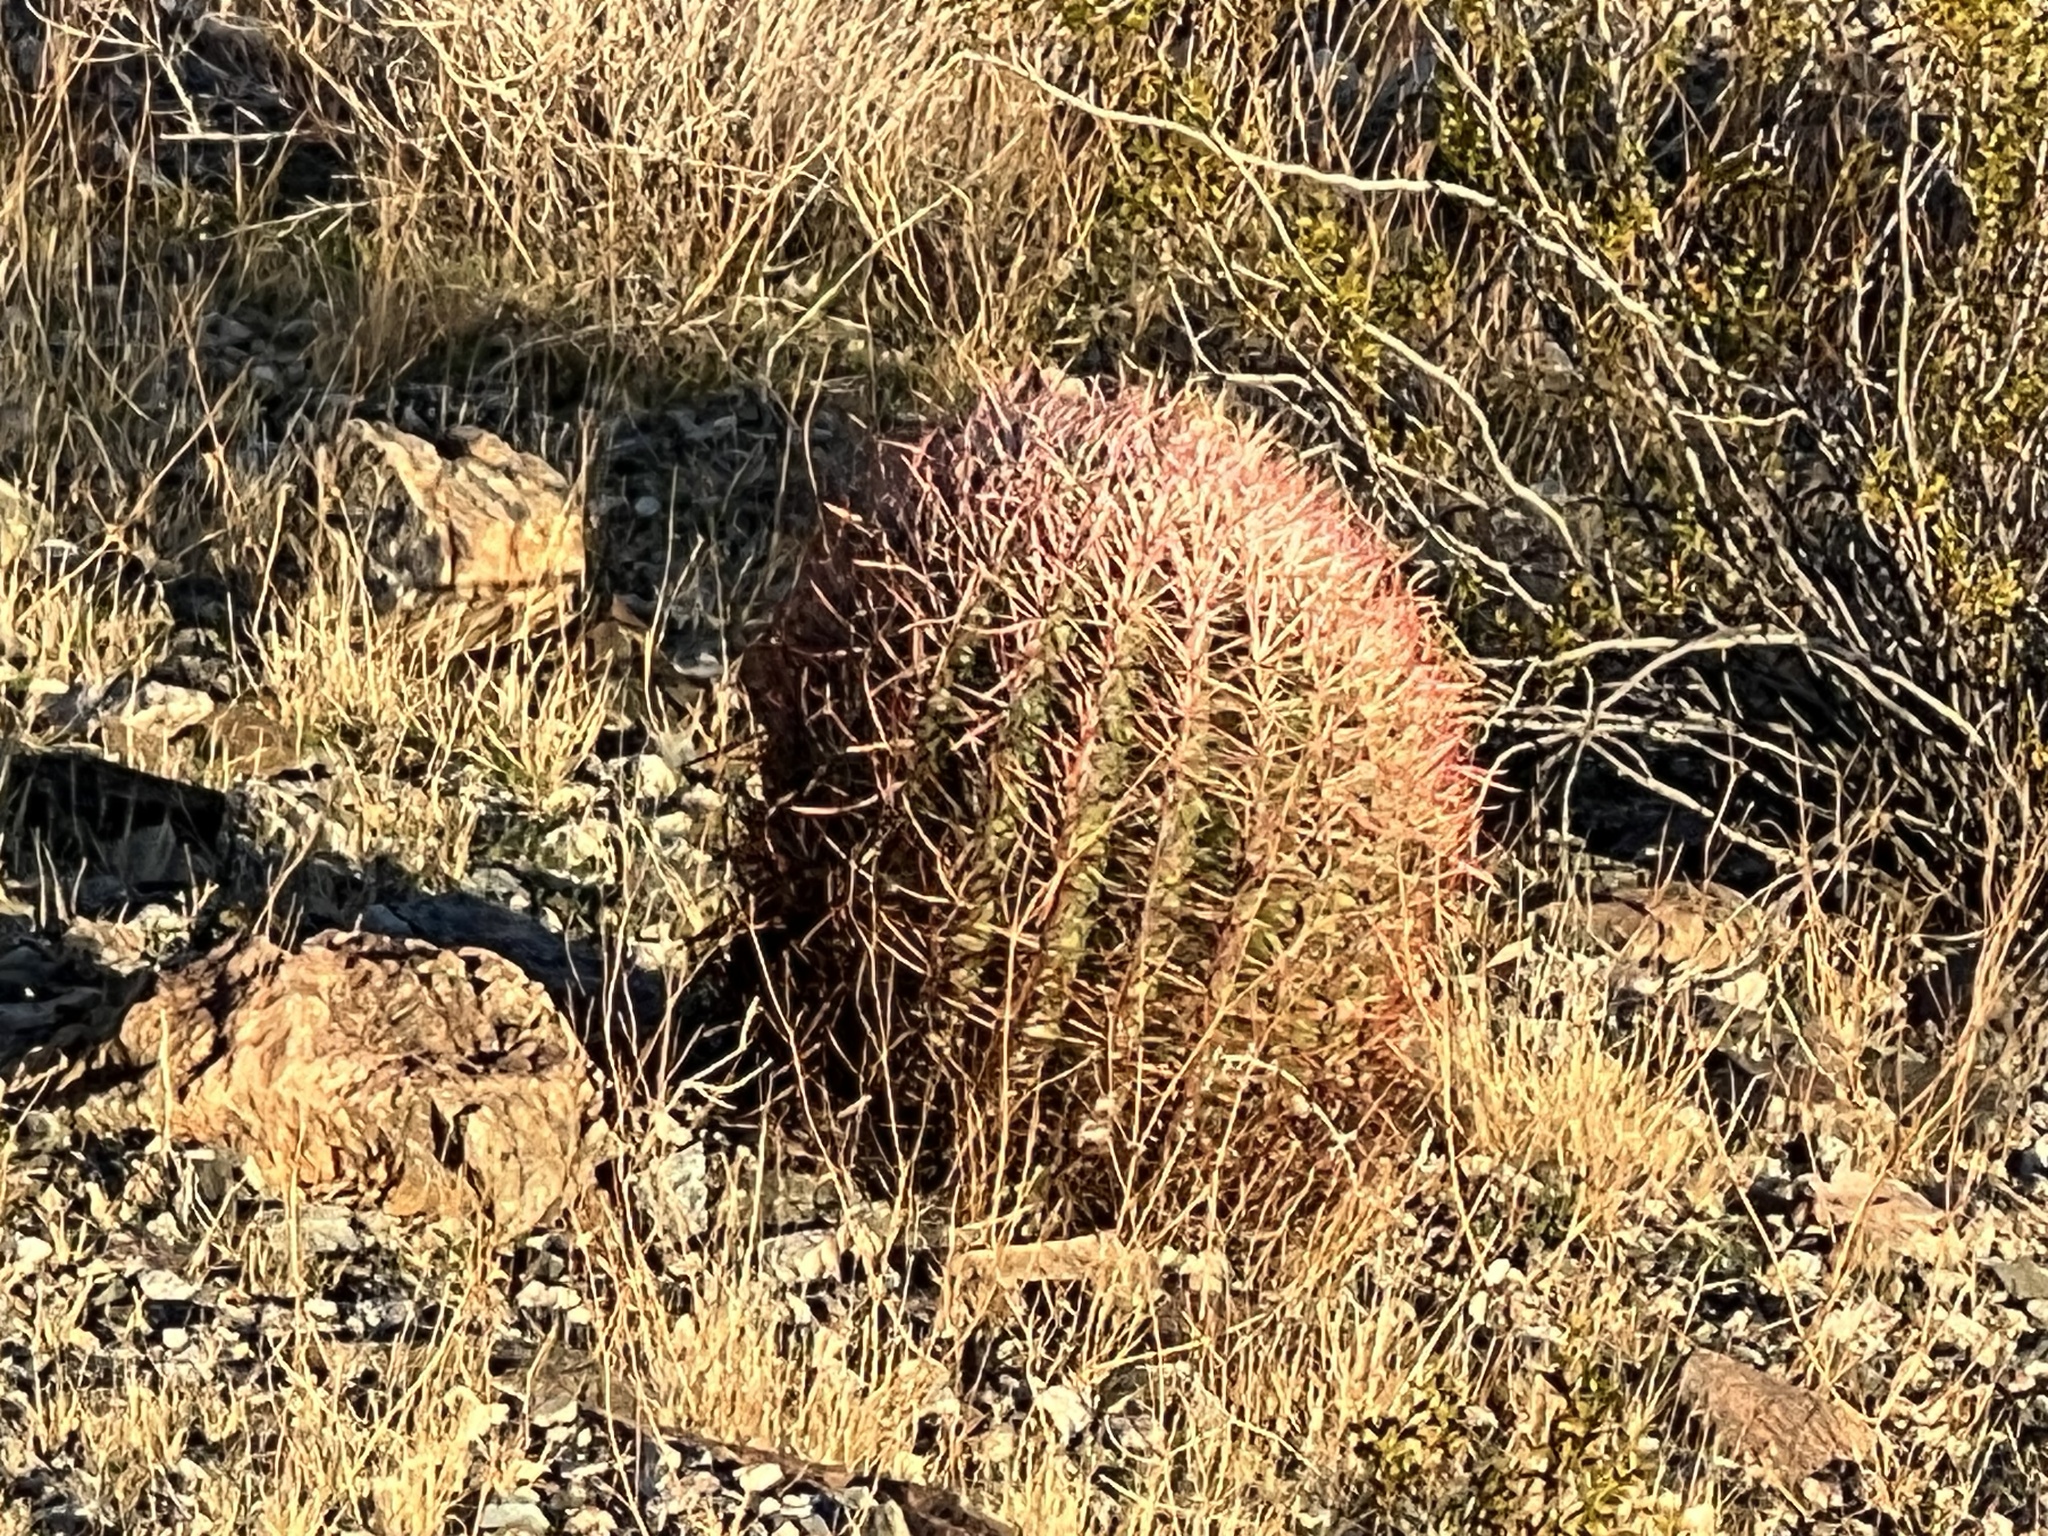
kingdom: Plantae
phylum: Tracheophyta
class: Magnoliopsida
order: Caryophyllales
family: Cactaceae
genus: Ferocactus
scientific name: Ferocactus cylindraceus
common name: California barrel cactus
